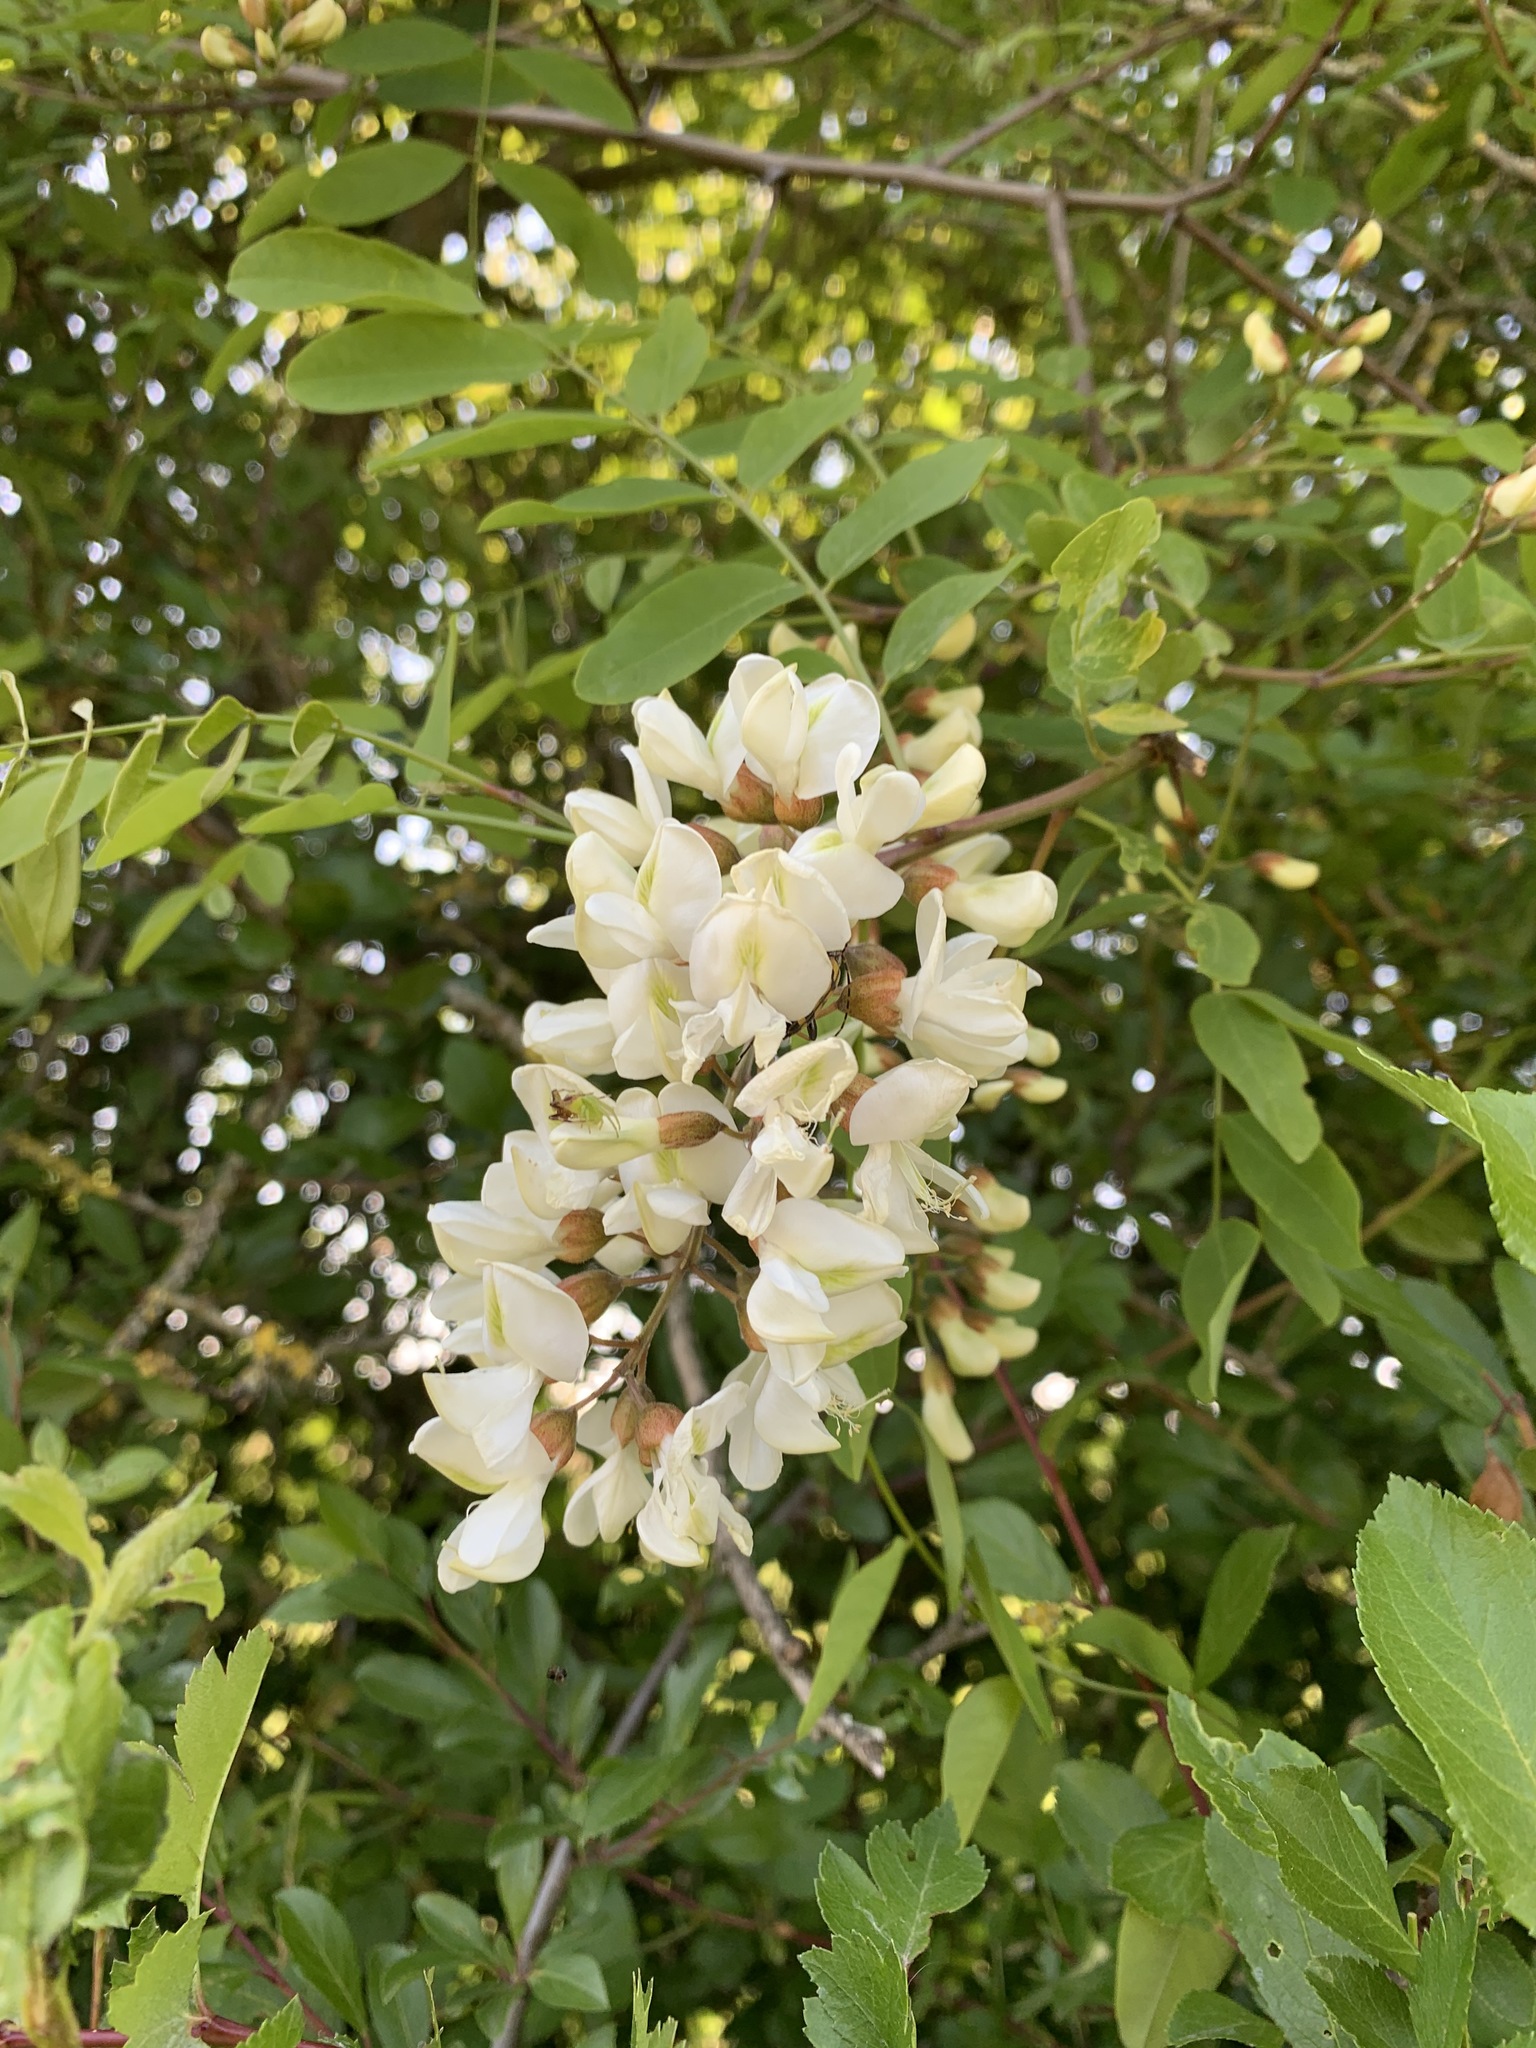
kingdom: Plantae
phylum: Tracheophyta
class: Magnoliopsida
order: Fabales
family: Fabaceae
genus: Robinia
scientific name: Robinia pseudoacacia
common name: Black locust
